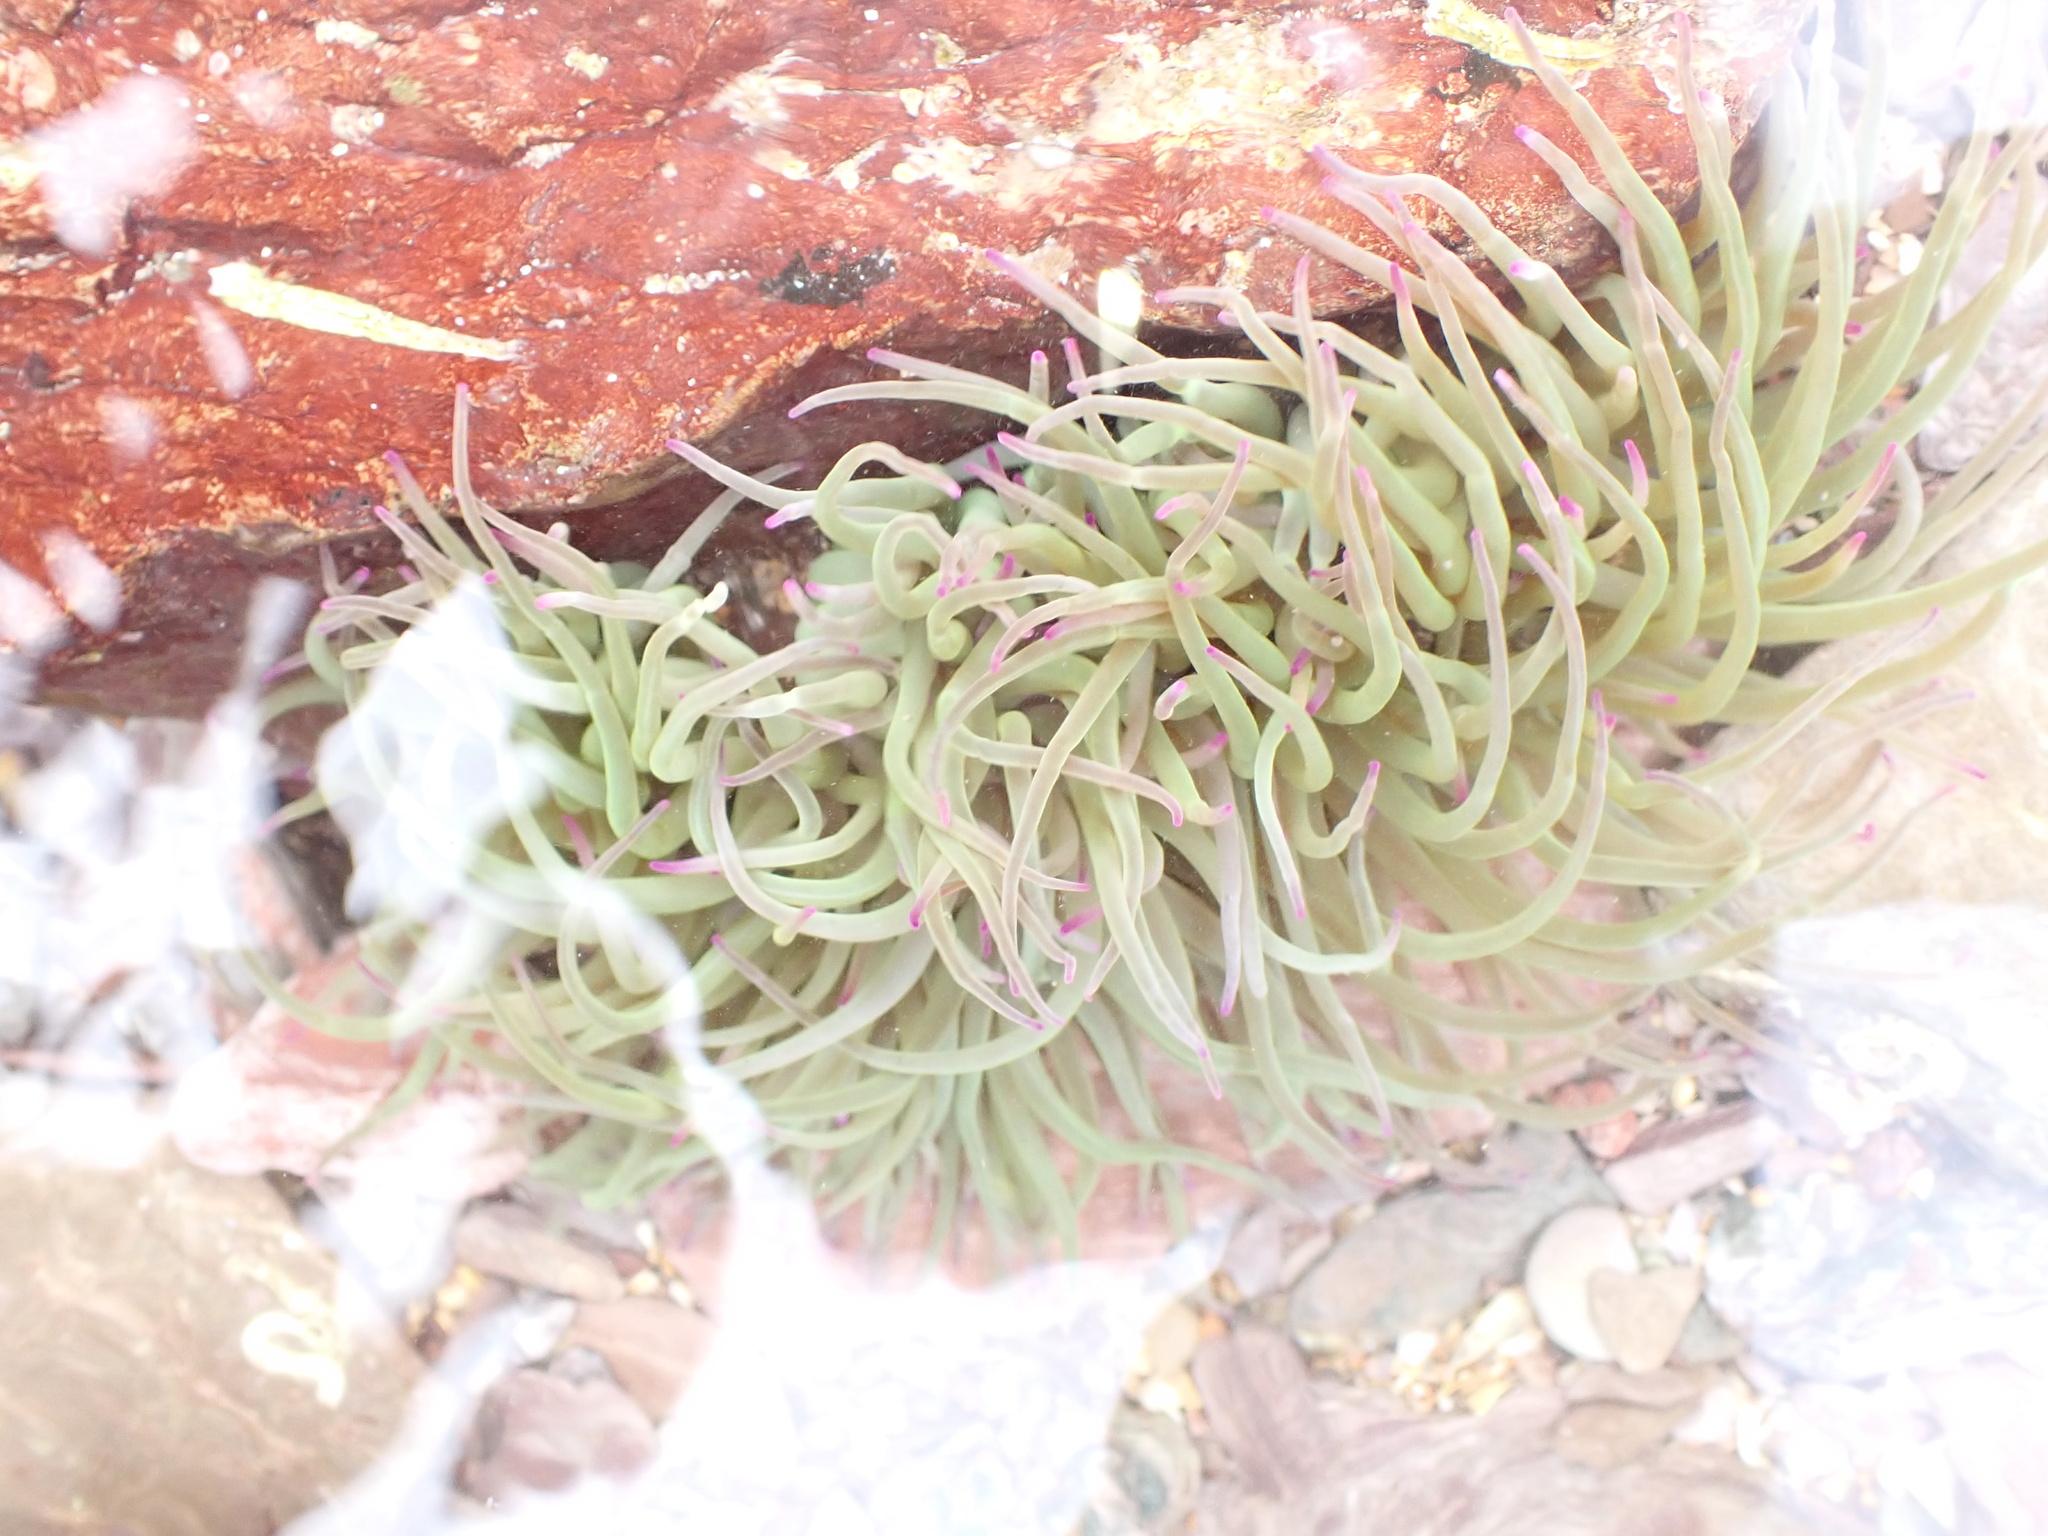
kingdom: Animalia
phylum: Cnidaria
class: Anthozoa
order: Actiniaria
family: Actiniidae
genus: Anemonia
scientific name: Anemonia viridis
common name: Snakelocks anemone
